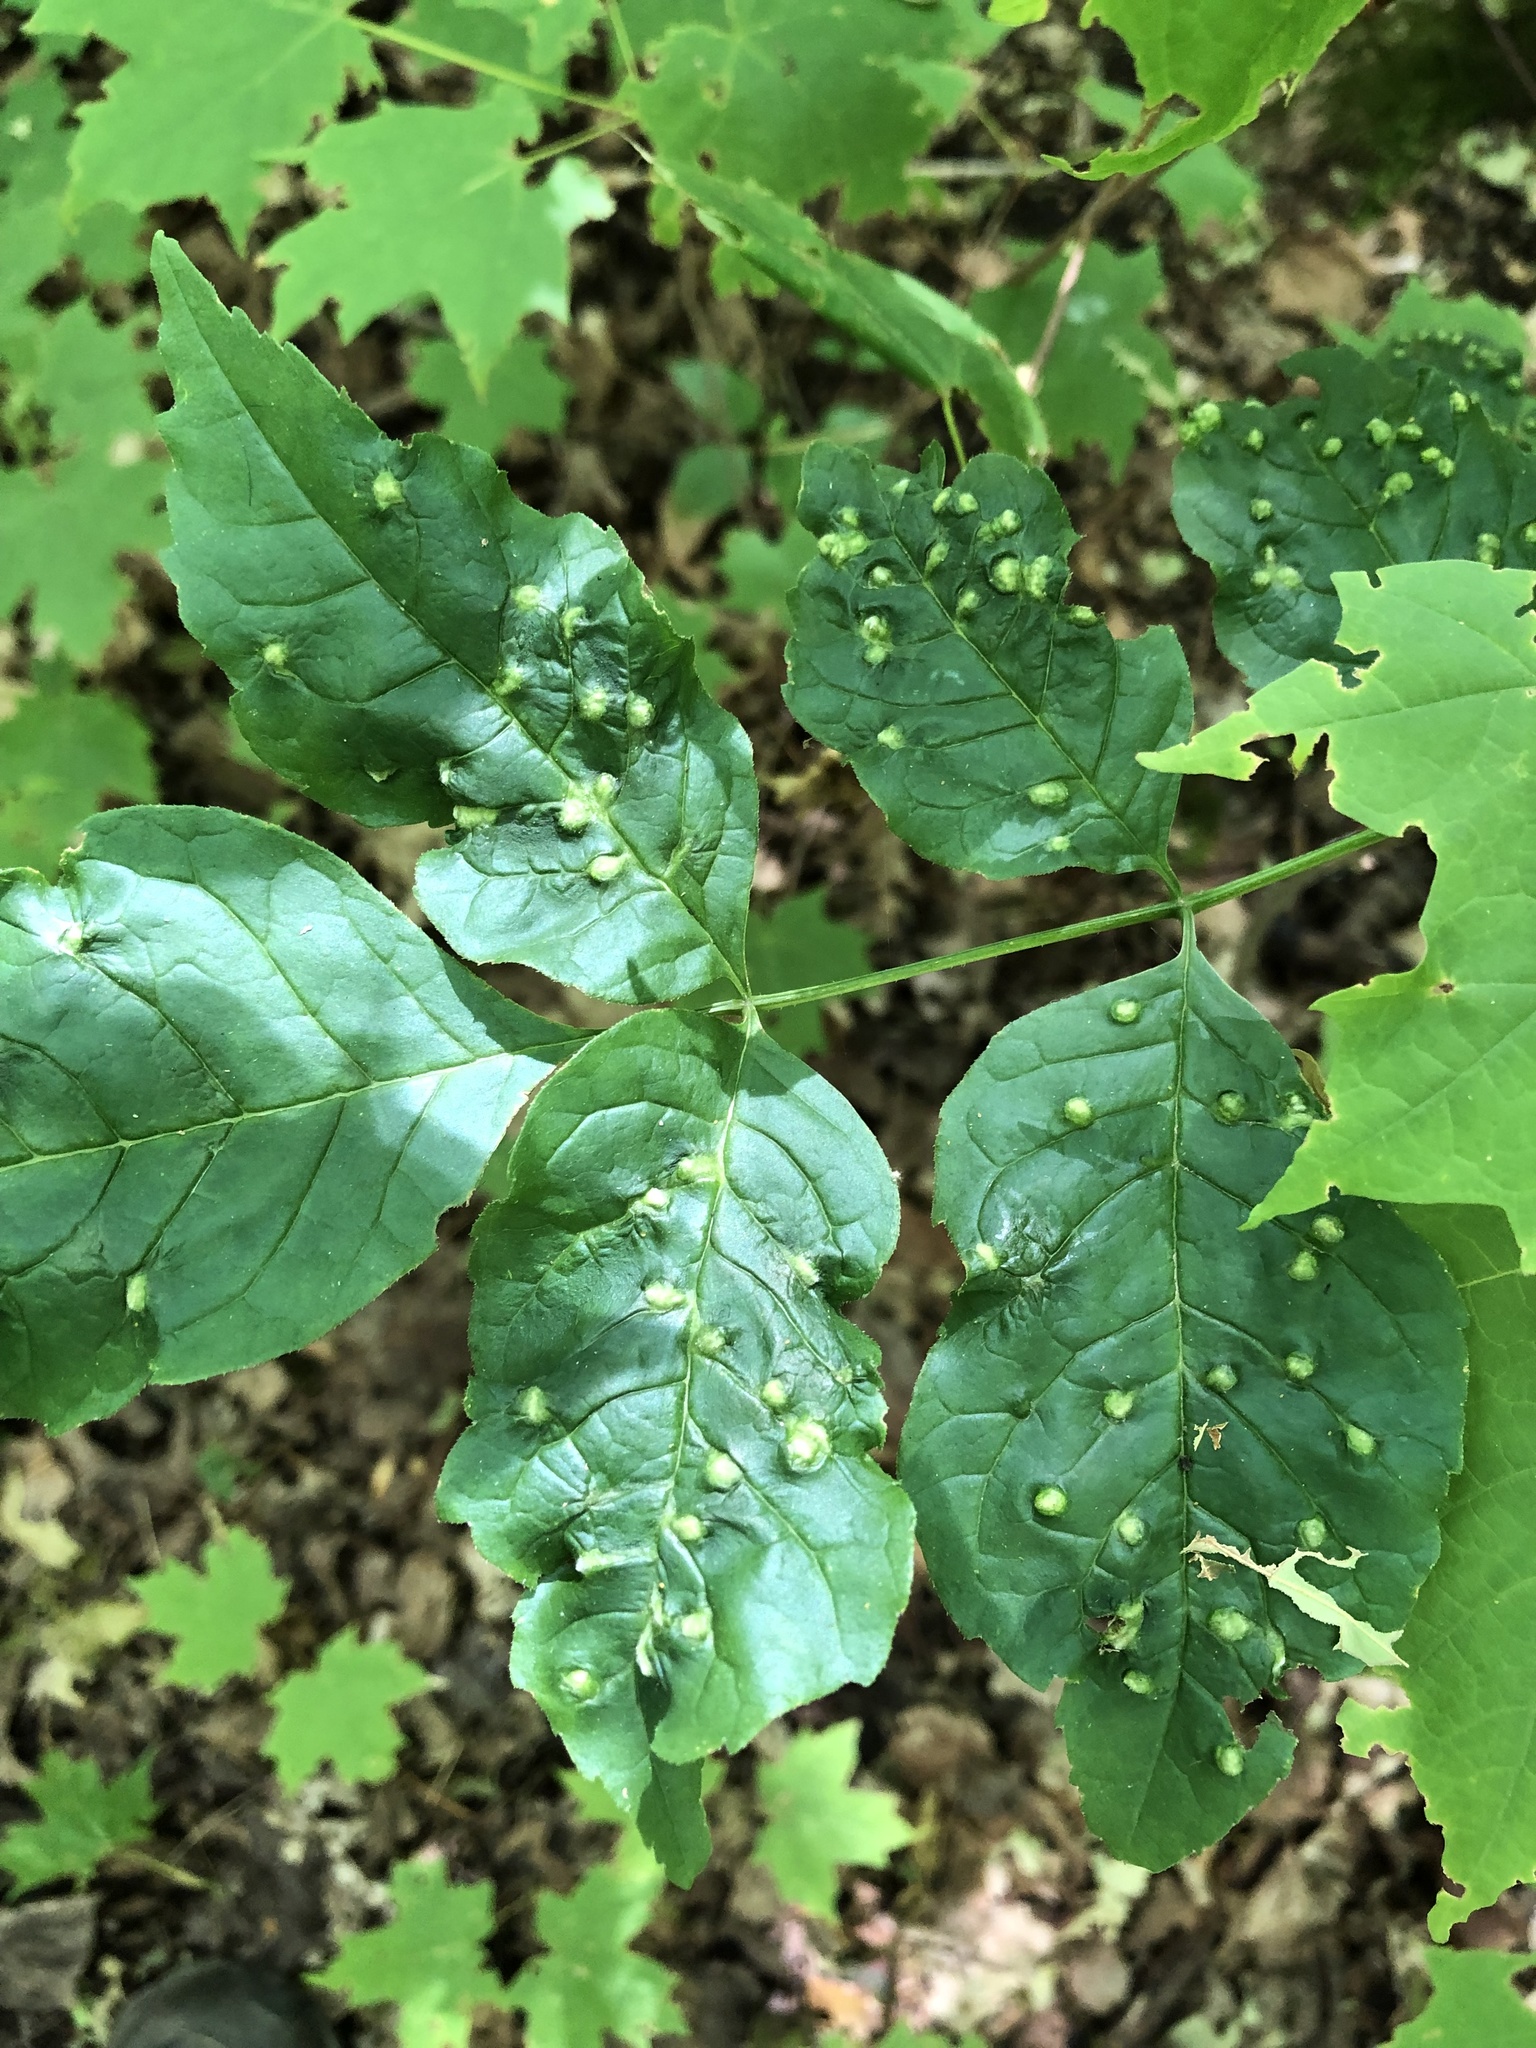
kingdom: Animalia
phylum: Arthropoda
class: Arachnida
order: Trombidiformes
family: Eriophyidae
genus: Aceria
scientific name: Aceria fraxinicola
